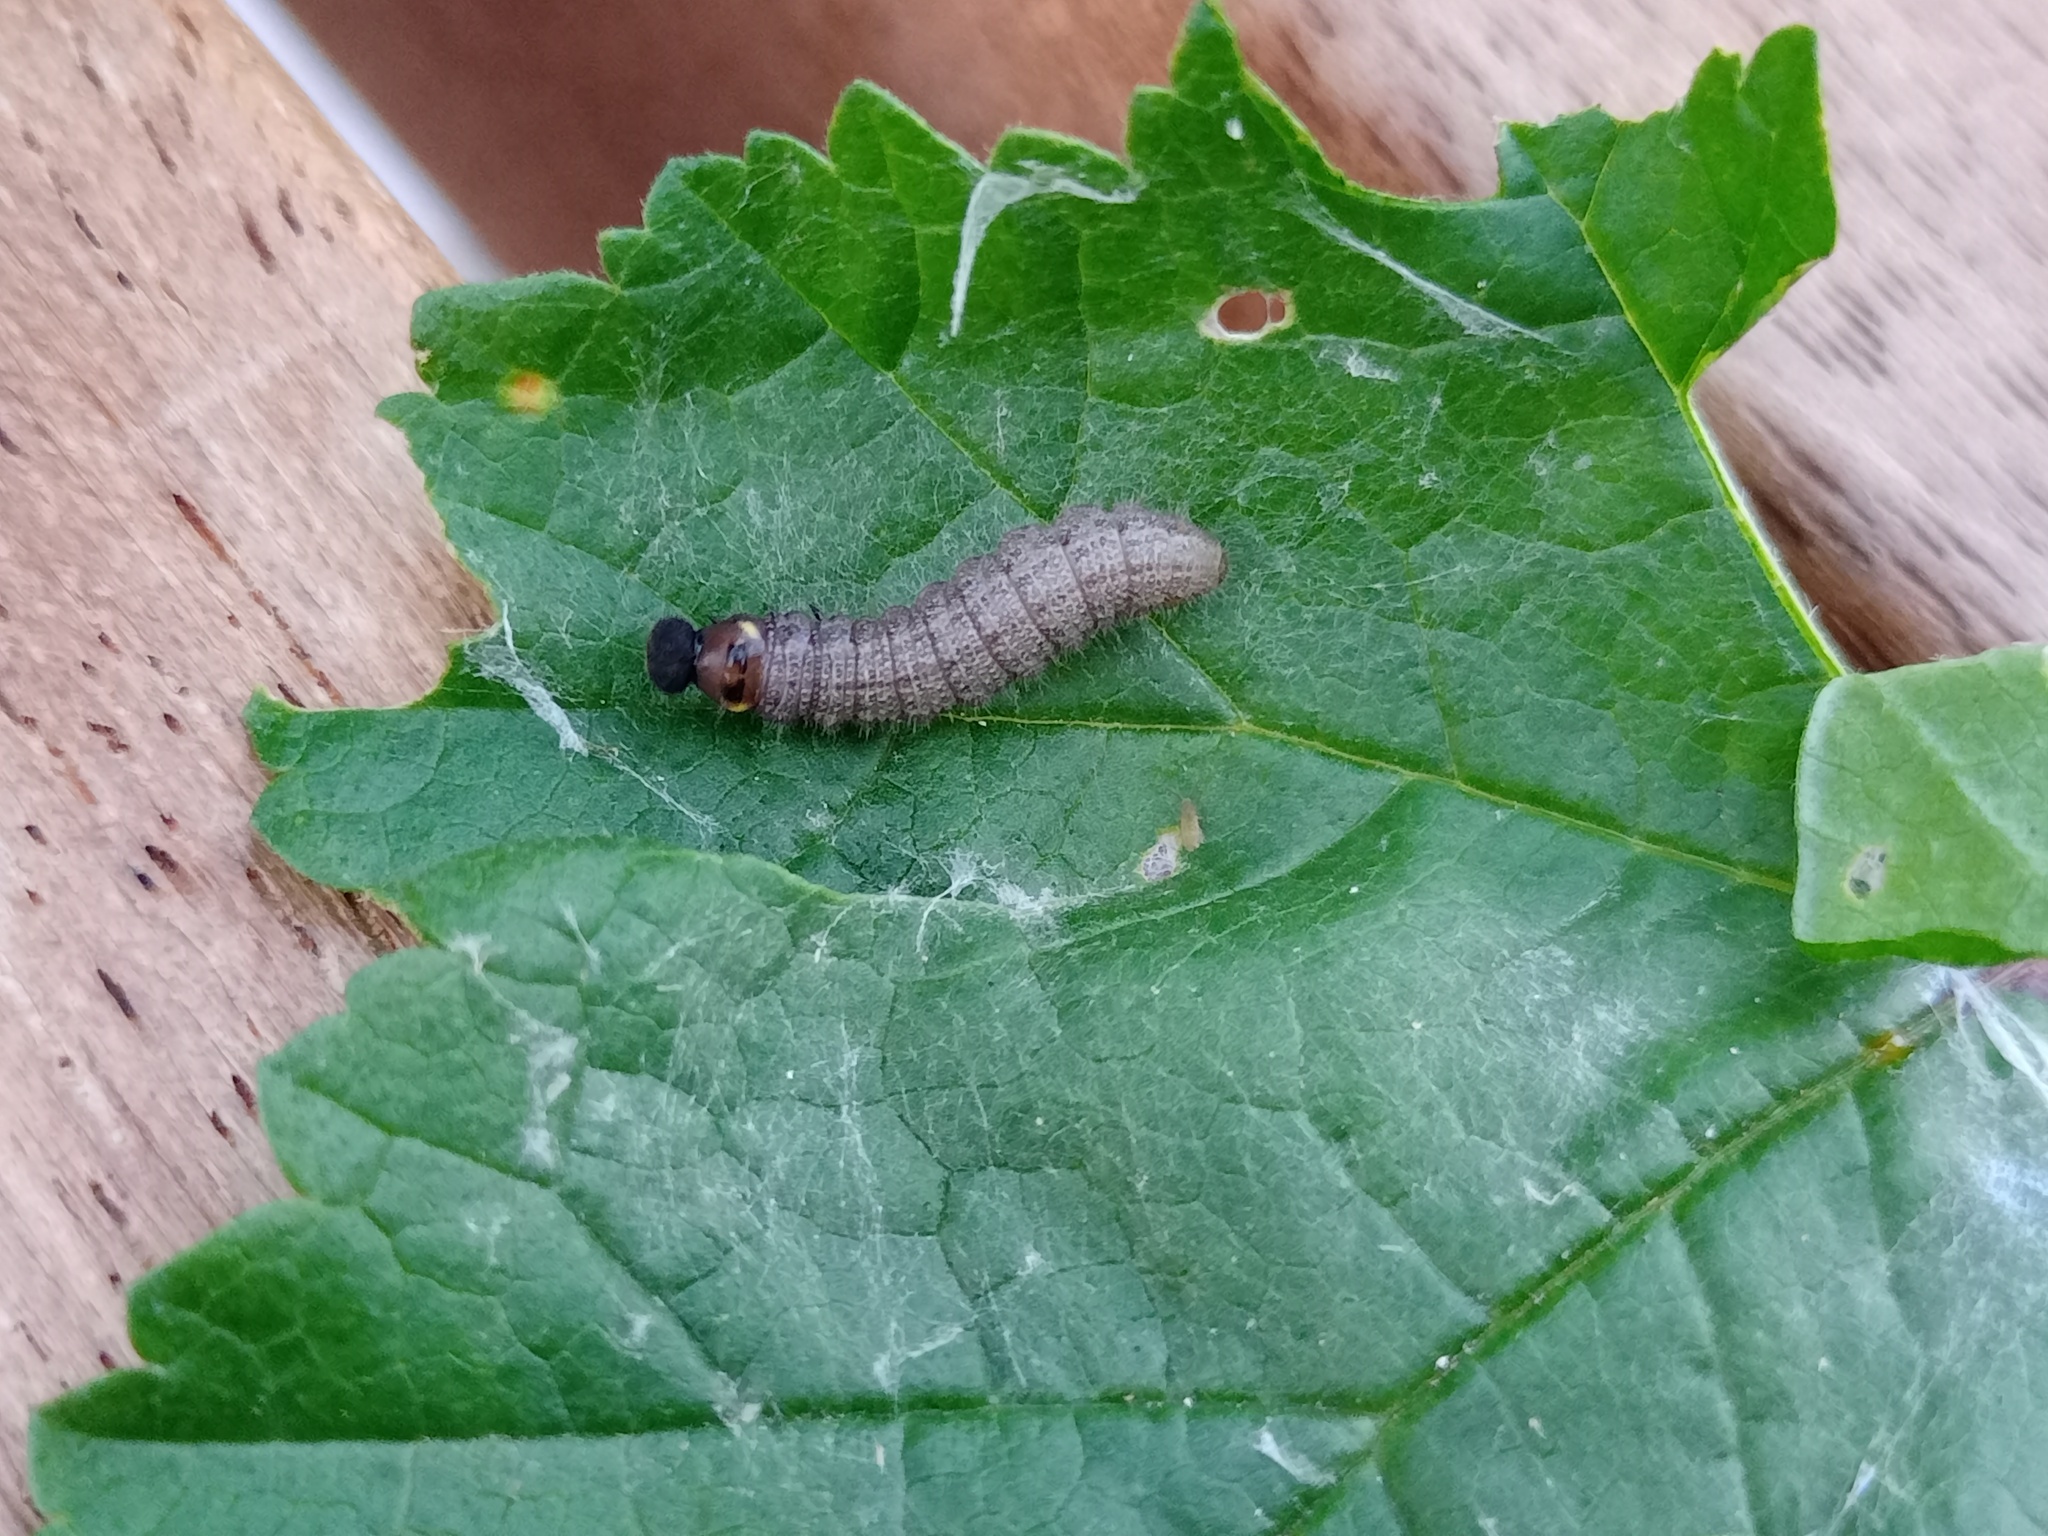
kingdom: Animalia
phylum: Arthropoda
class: Insecta
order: Lepidoptera
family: Hesperiidae
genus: Carcharodus
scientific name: Carcharodus alceae
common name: Mallow skipper
